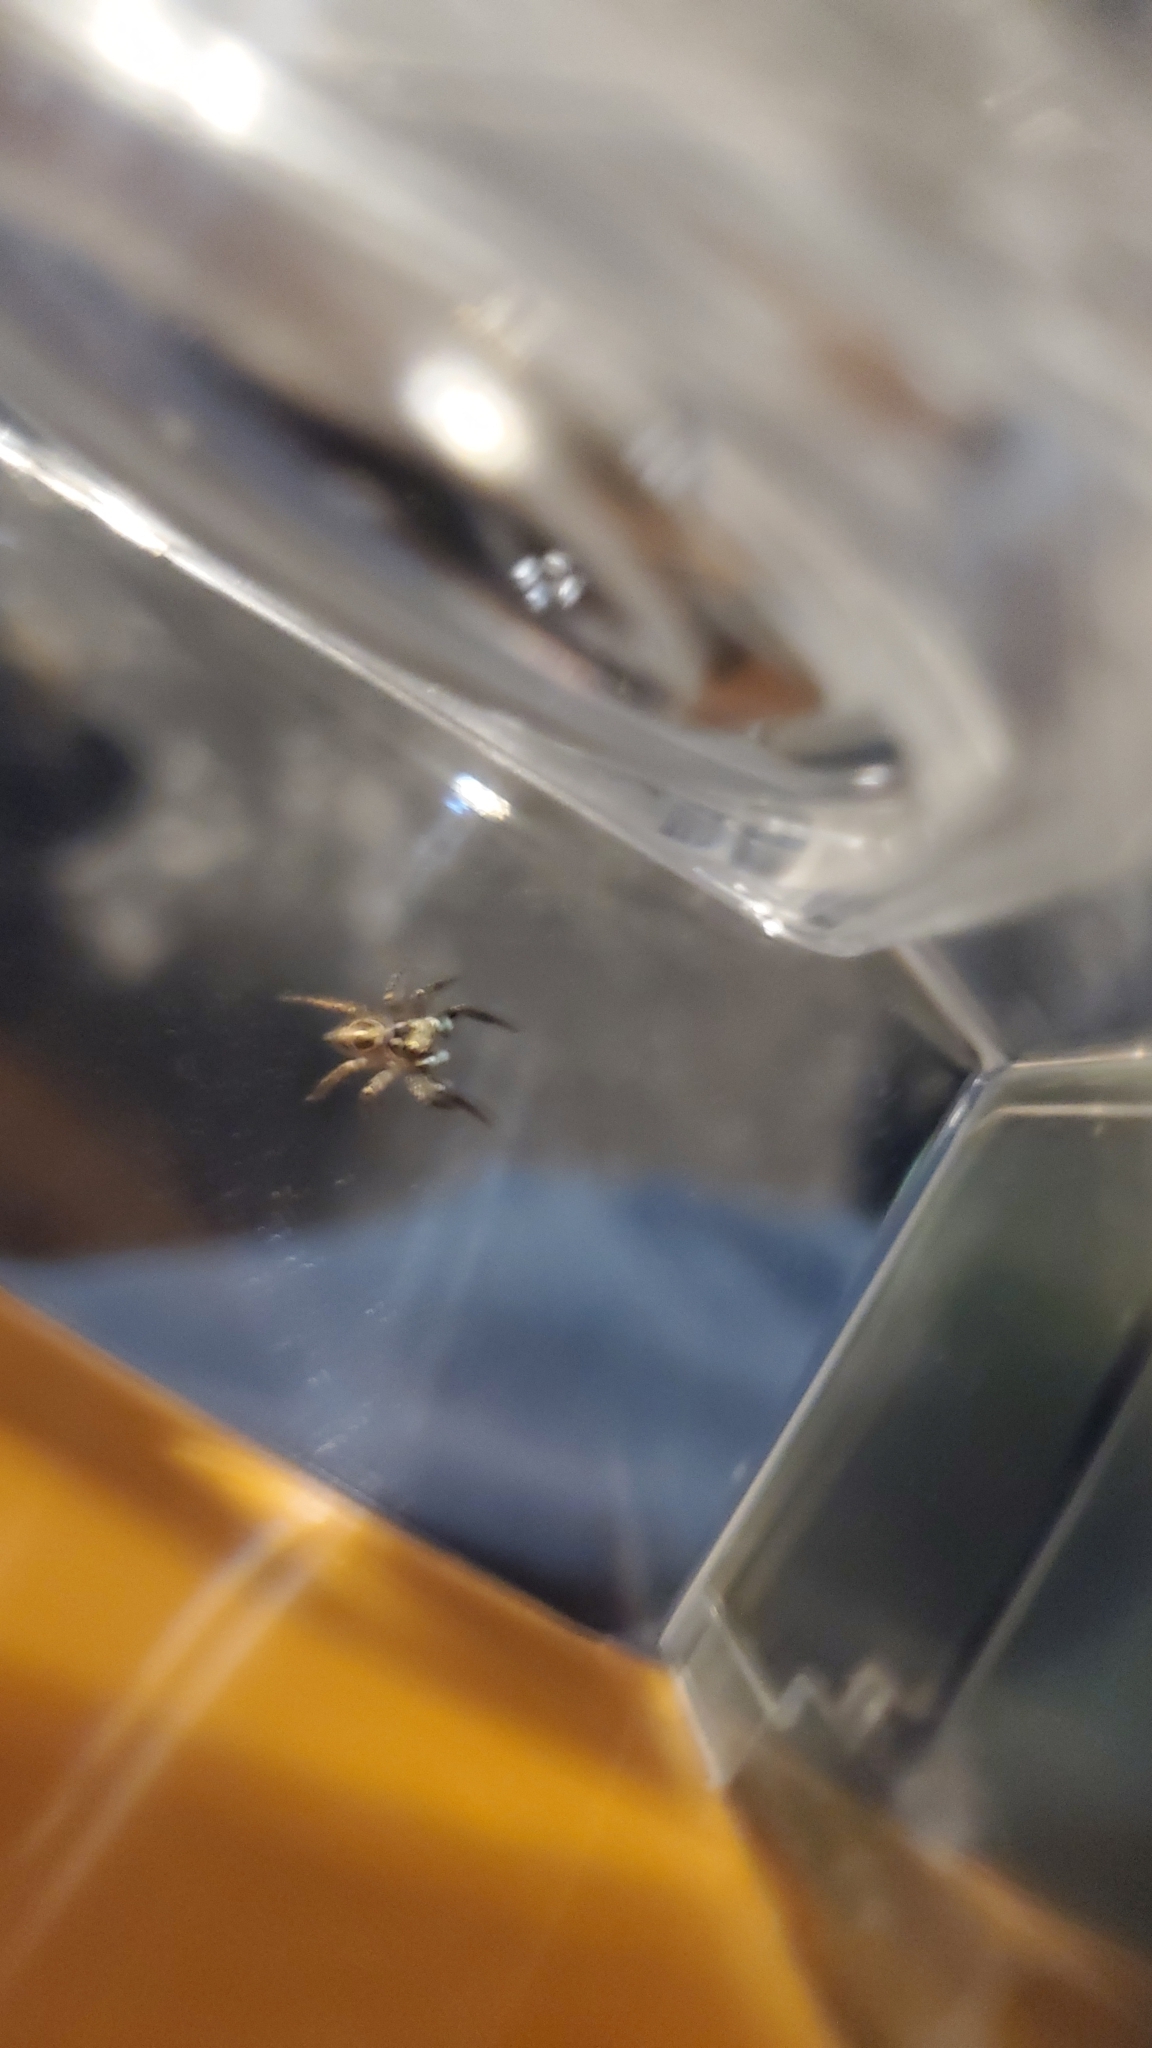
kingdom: Animalia
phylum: Arthropoda
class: Arachnida
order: Araneae
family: Salticidae
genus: Anasaitis
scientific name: Anasaitis canosa
